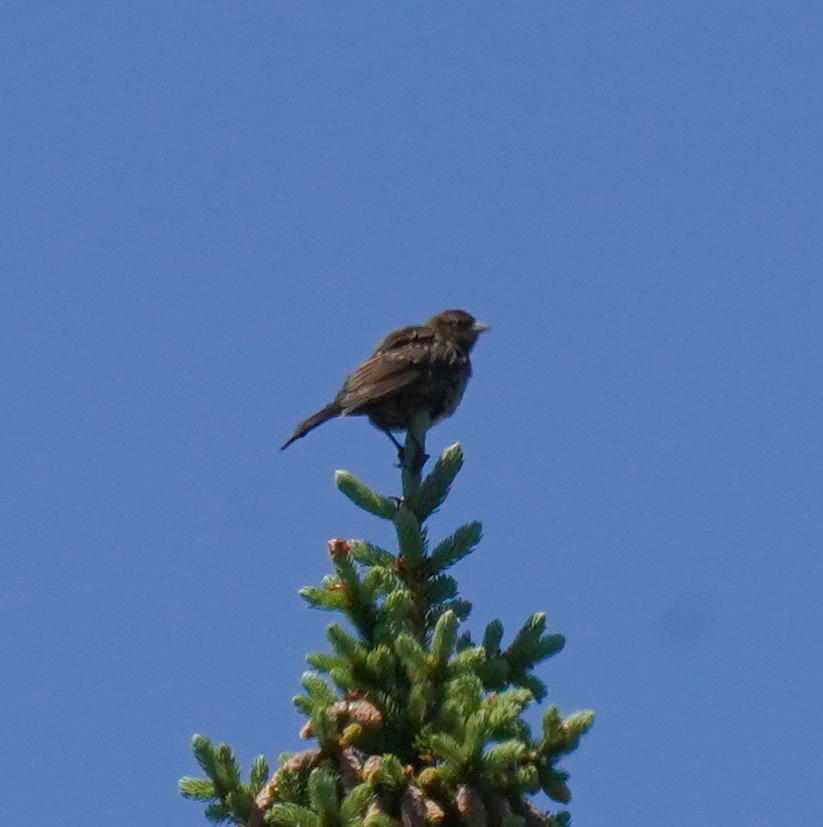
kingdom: Animalia
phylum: Chordata
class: Aves
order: Passeriformes
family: Passerellidae
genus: Melospiza
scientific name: Melospiza melodia
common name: Song sparrow
